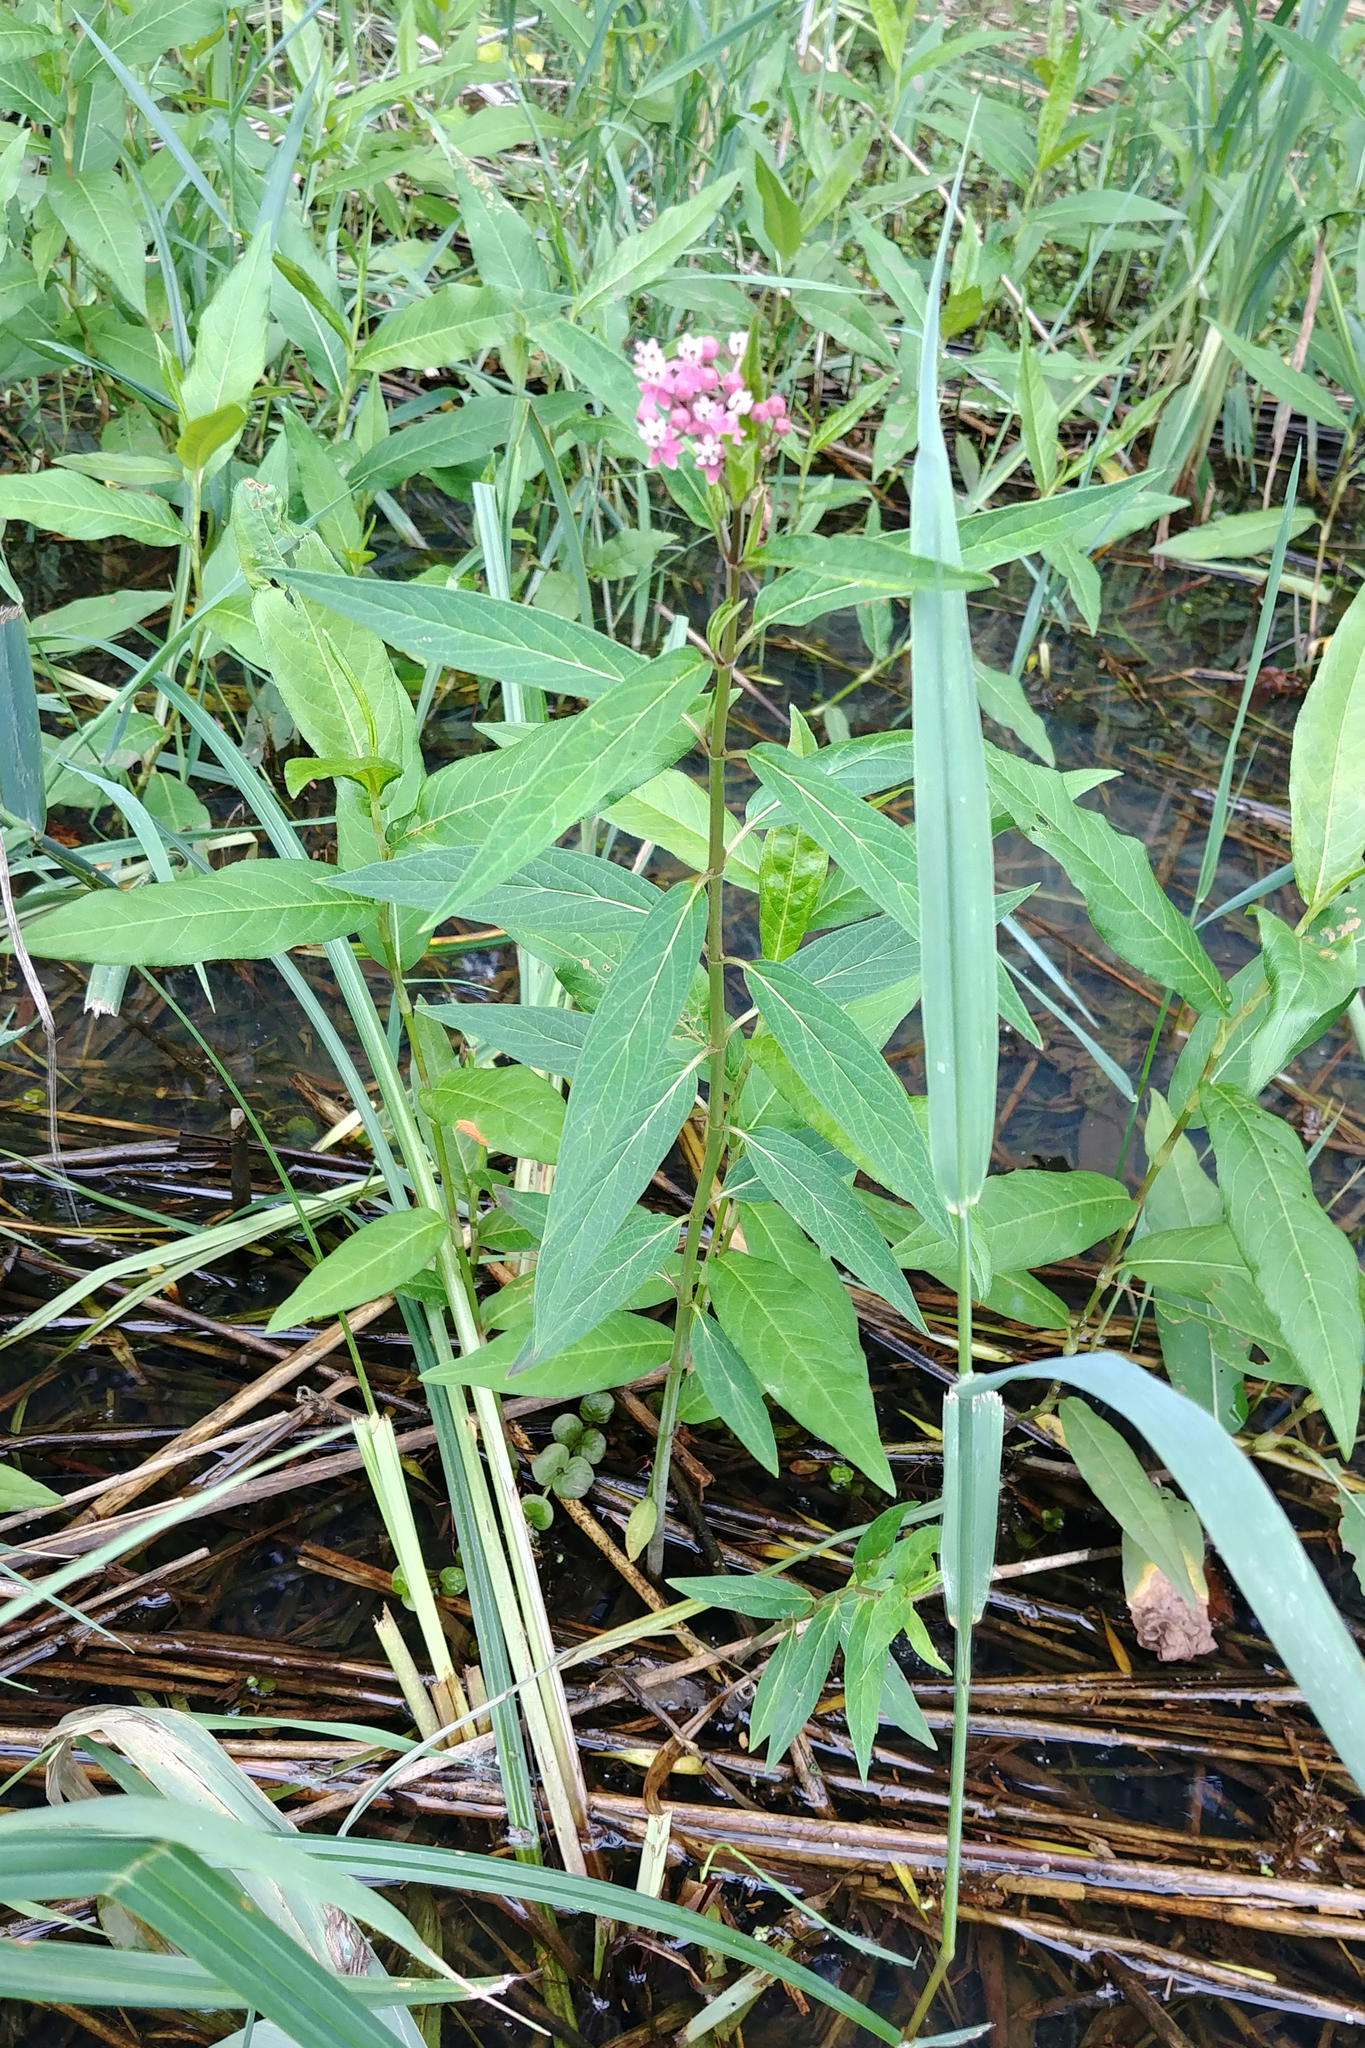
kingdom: Plantae
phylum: Tracheophyta
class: Magnoliopsida
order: Gentianales
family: Apocynaceae
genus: Asclepias
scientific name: Asclepias incarnata
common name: Swamp milkweed
